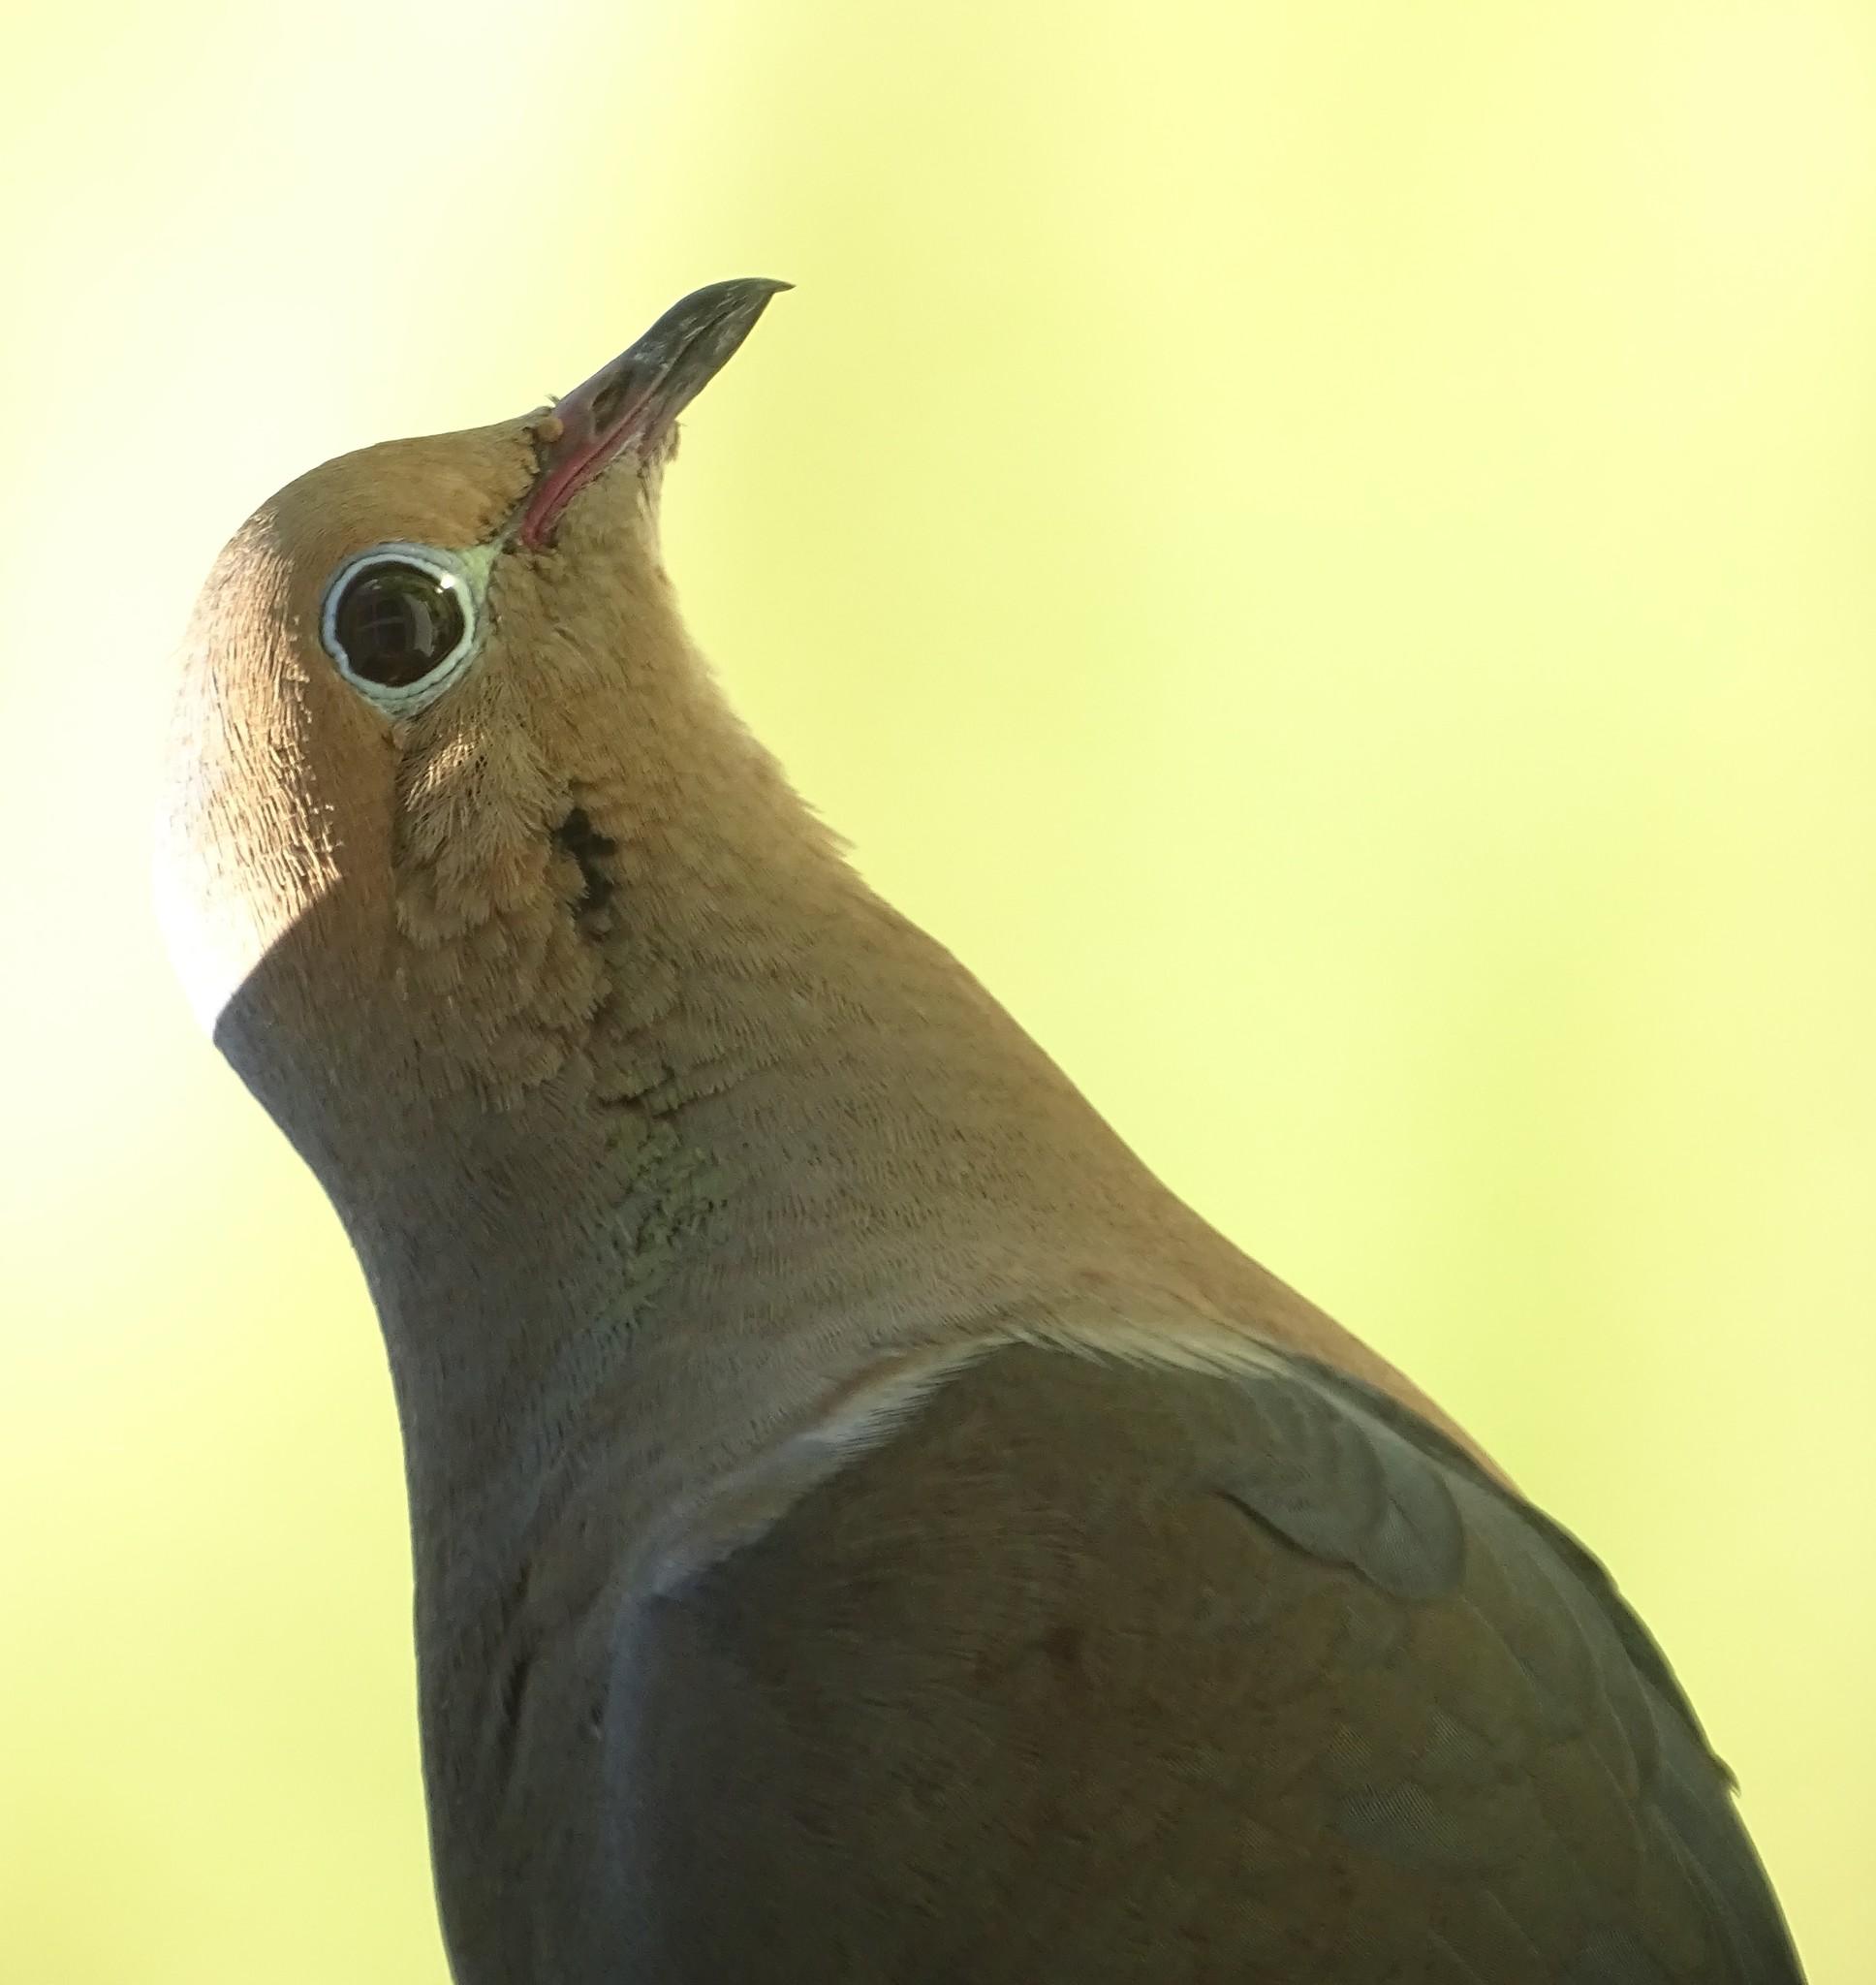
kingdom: Animalia
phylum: Chordata
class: Aves
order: Columbiformes
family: Columbidae
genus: Zenaida
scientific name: Zenaida macroura
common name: Mourning dove
